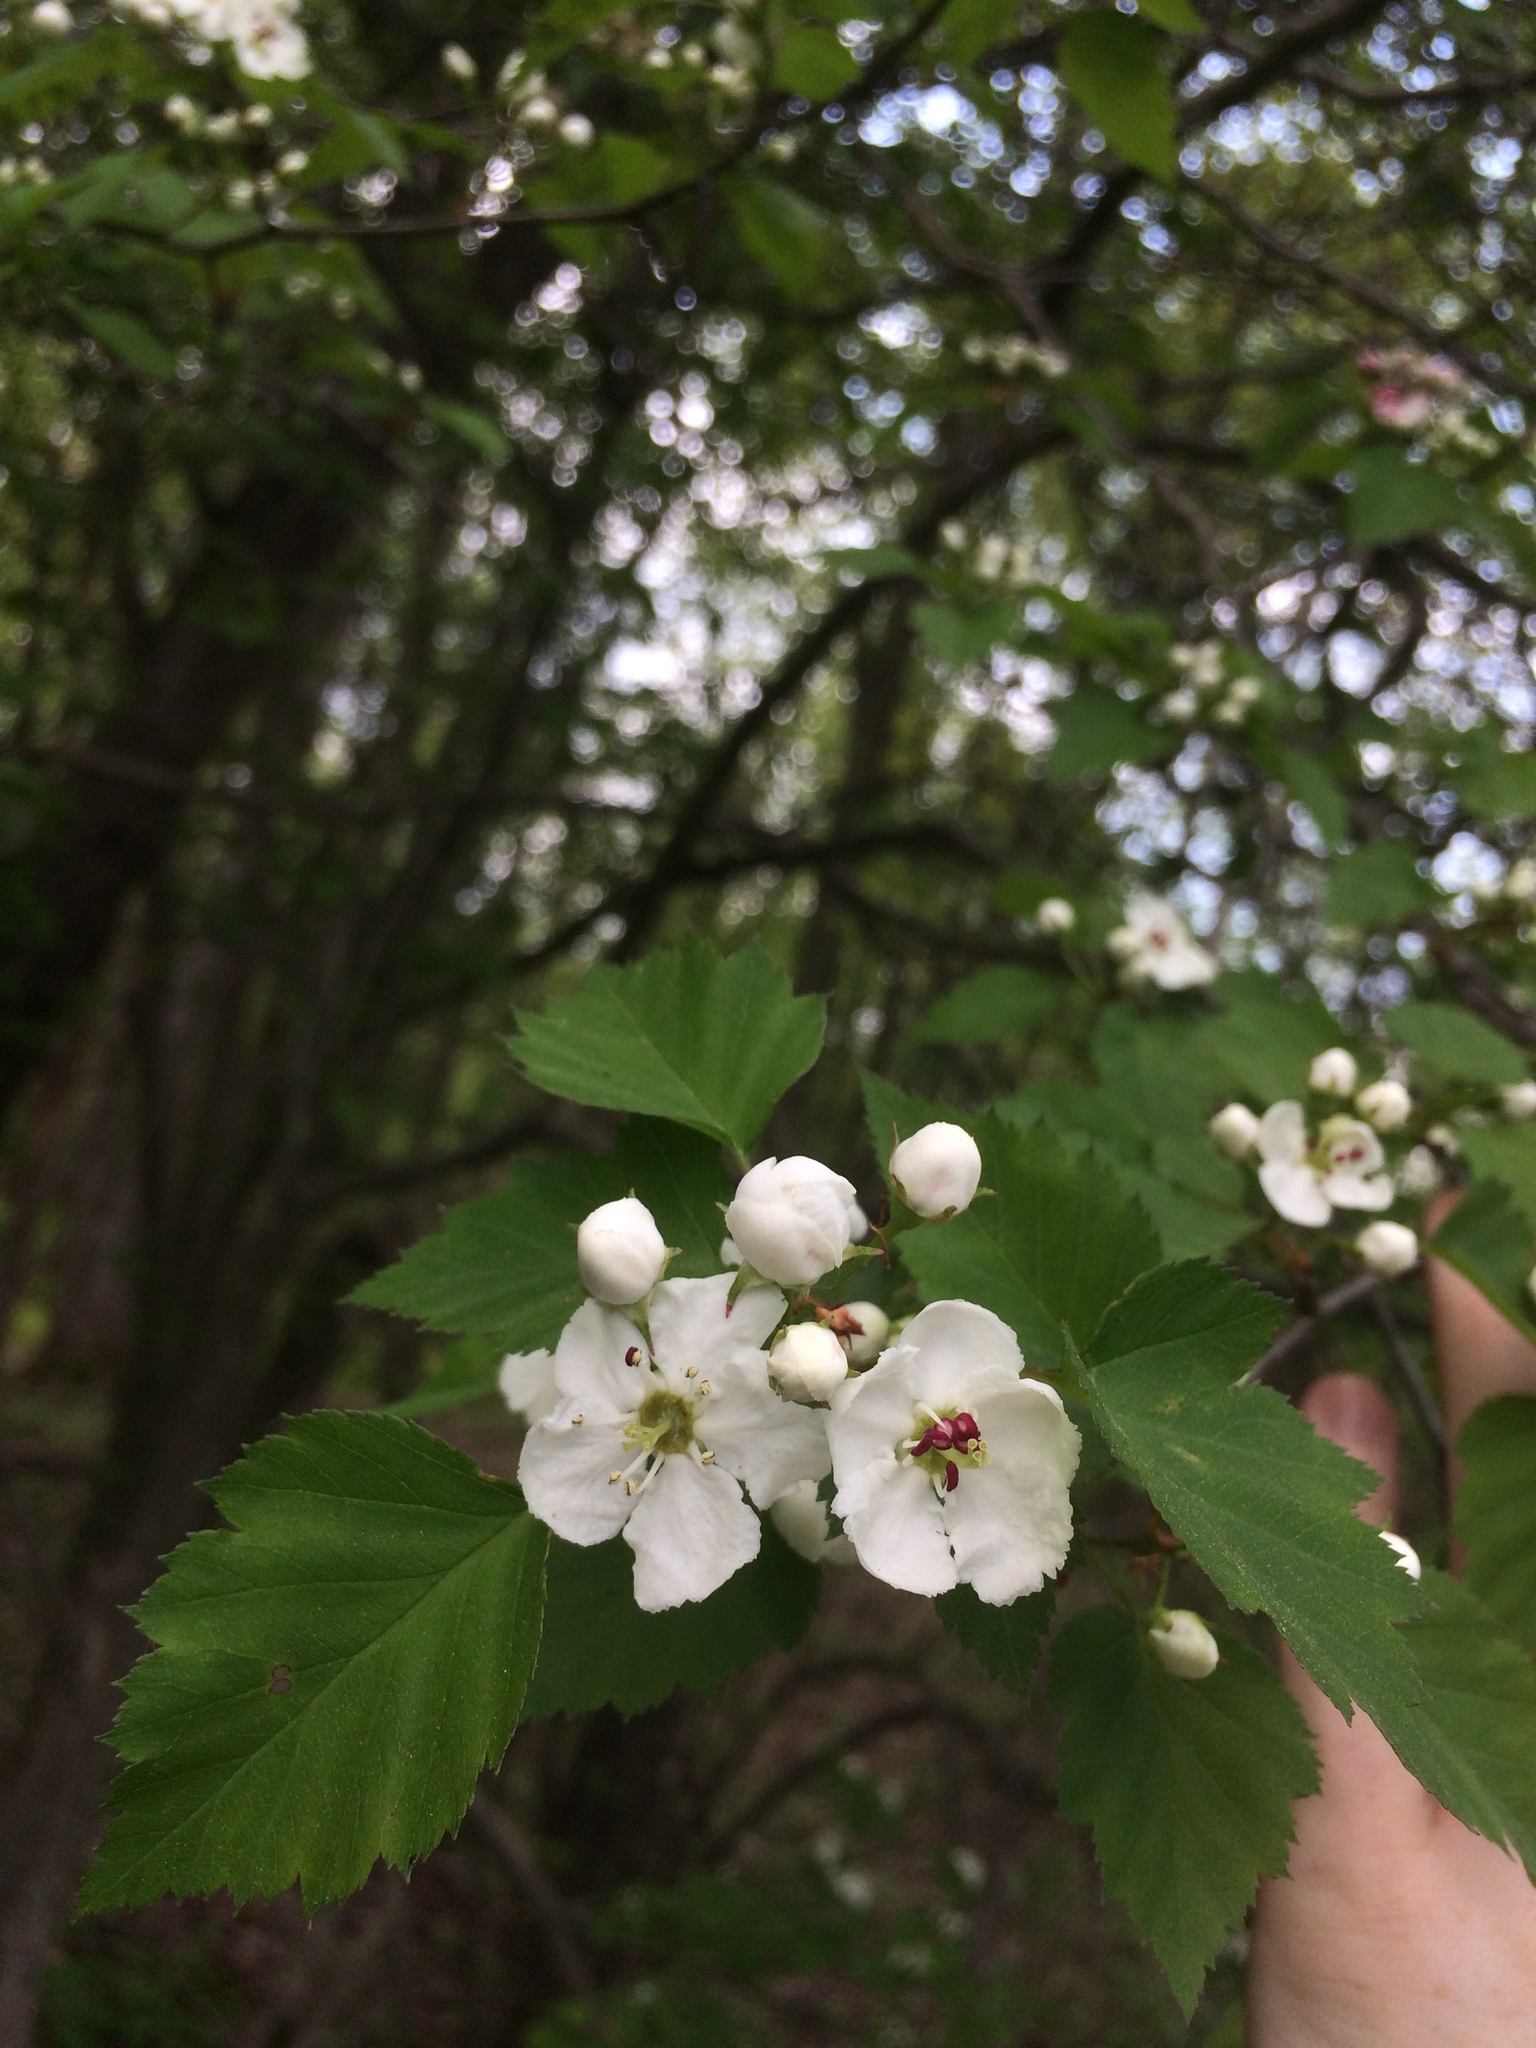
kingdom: Plantae
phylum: Tracheophyta
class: Magnoliopsida
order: Rosales
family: Rosaceae
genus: Crataegus
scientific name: Crataegus macrosperma
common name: Variable hawthorn
